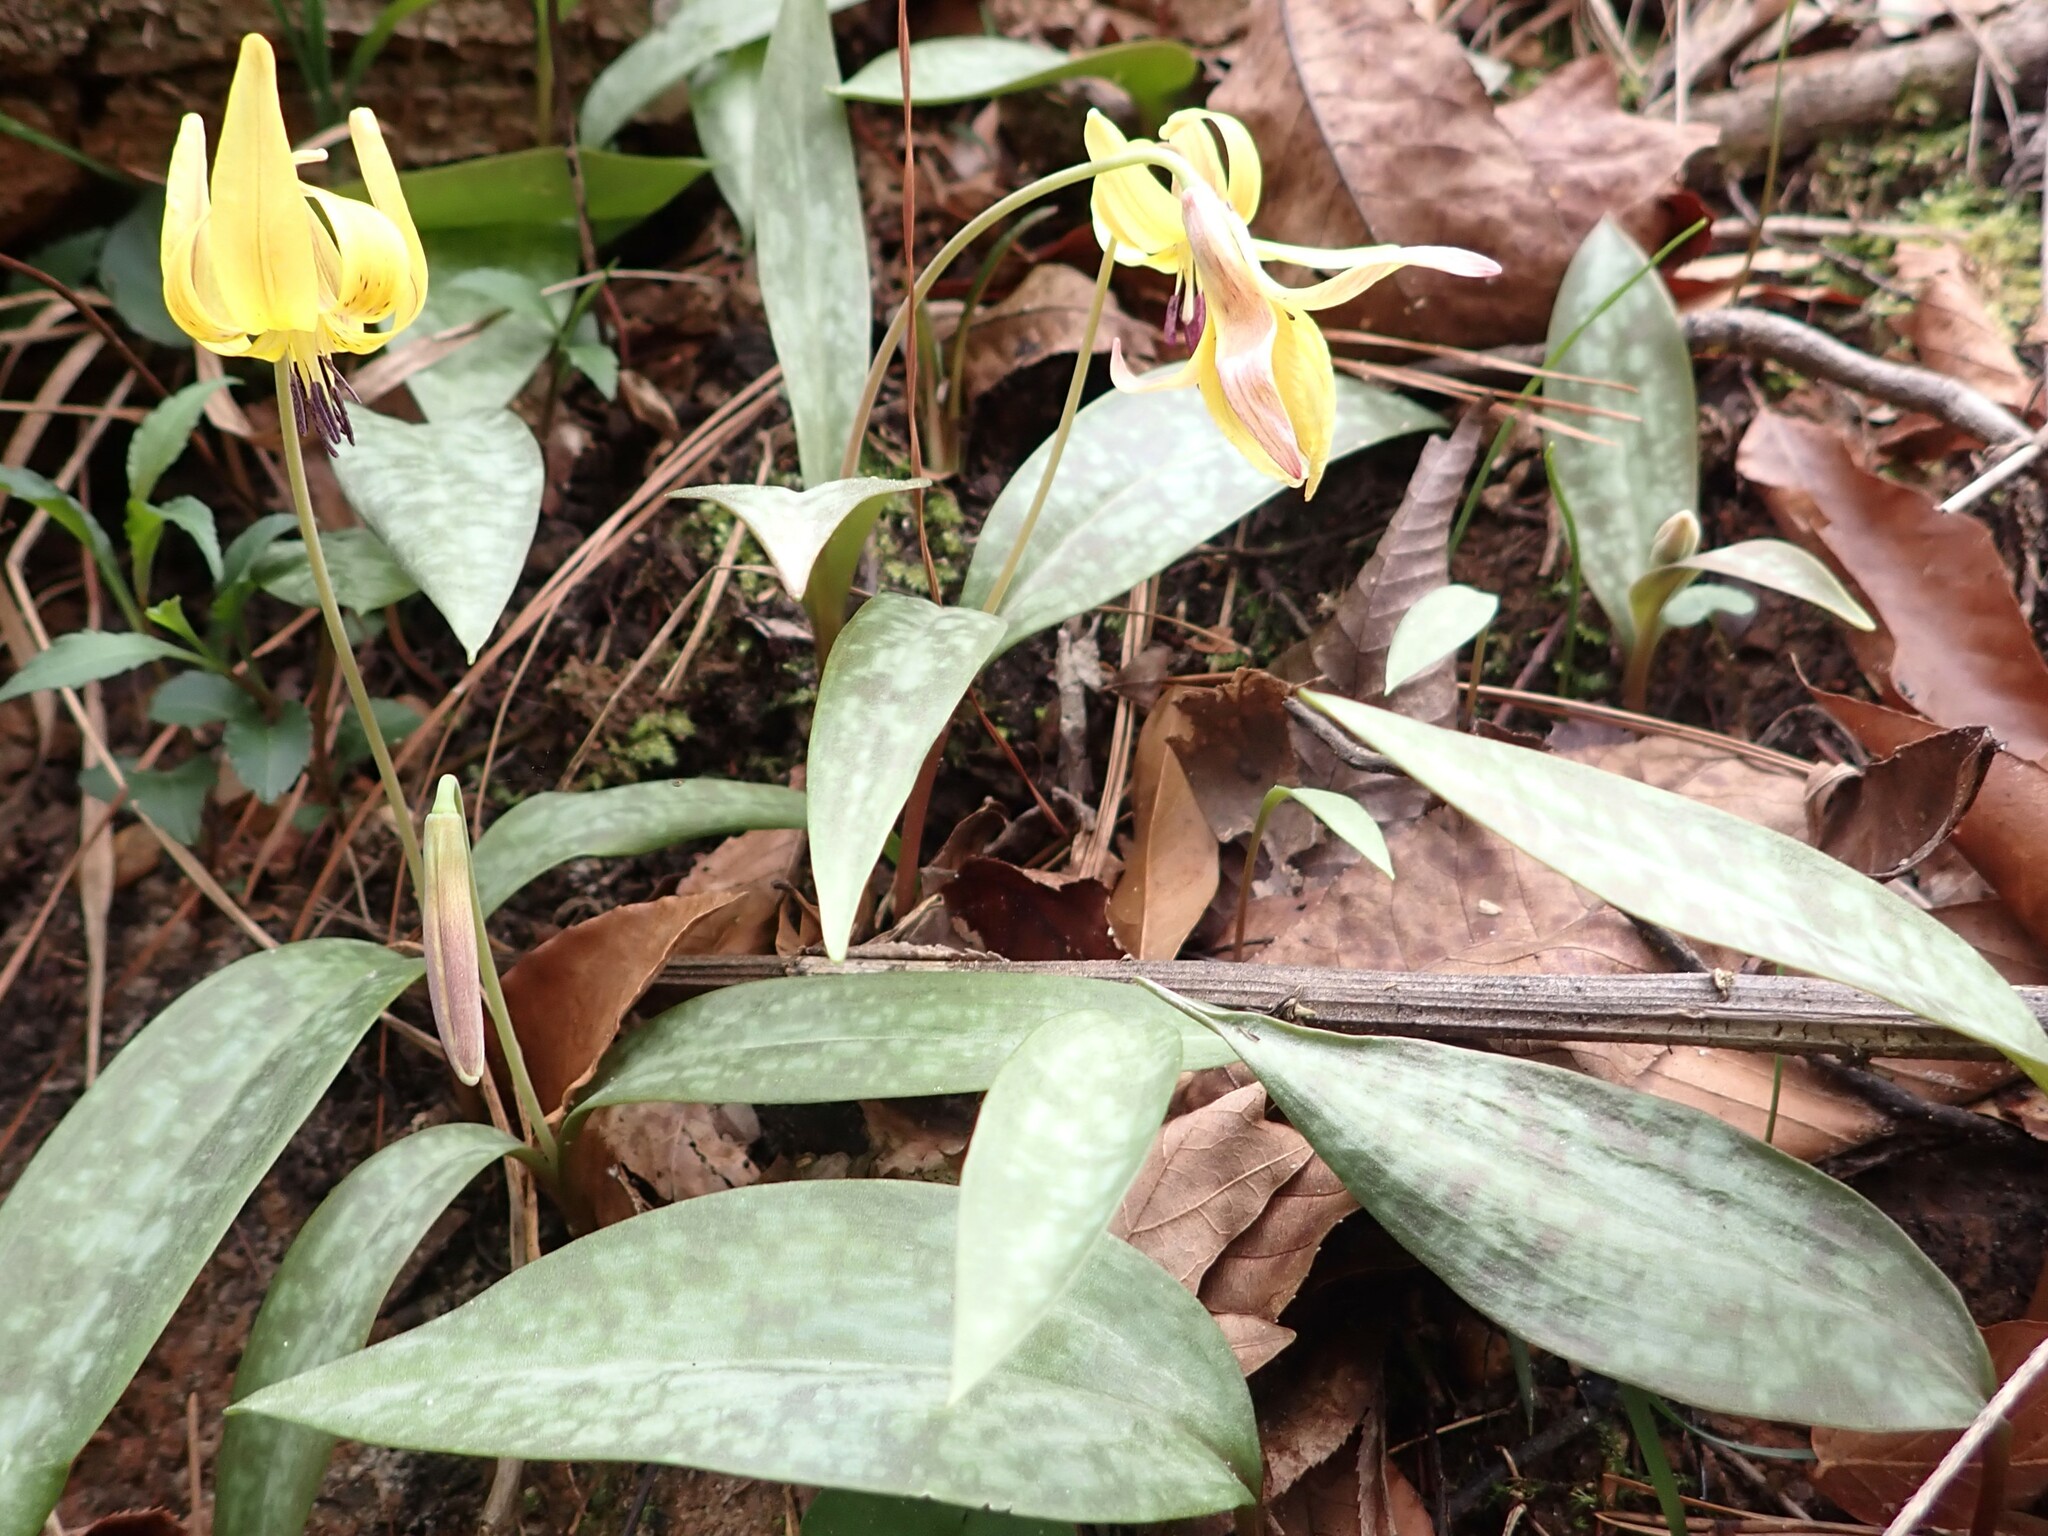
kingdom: Plantae
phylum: Tracheophyta
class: Liliopsida
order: Liliales
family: Liliaceae
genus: Erythronium
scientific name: Erythronium umbilicatum
